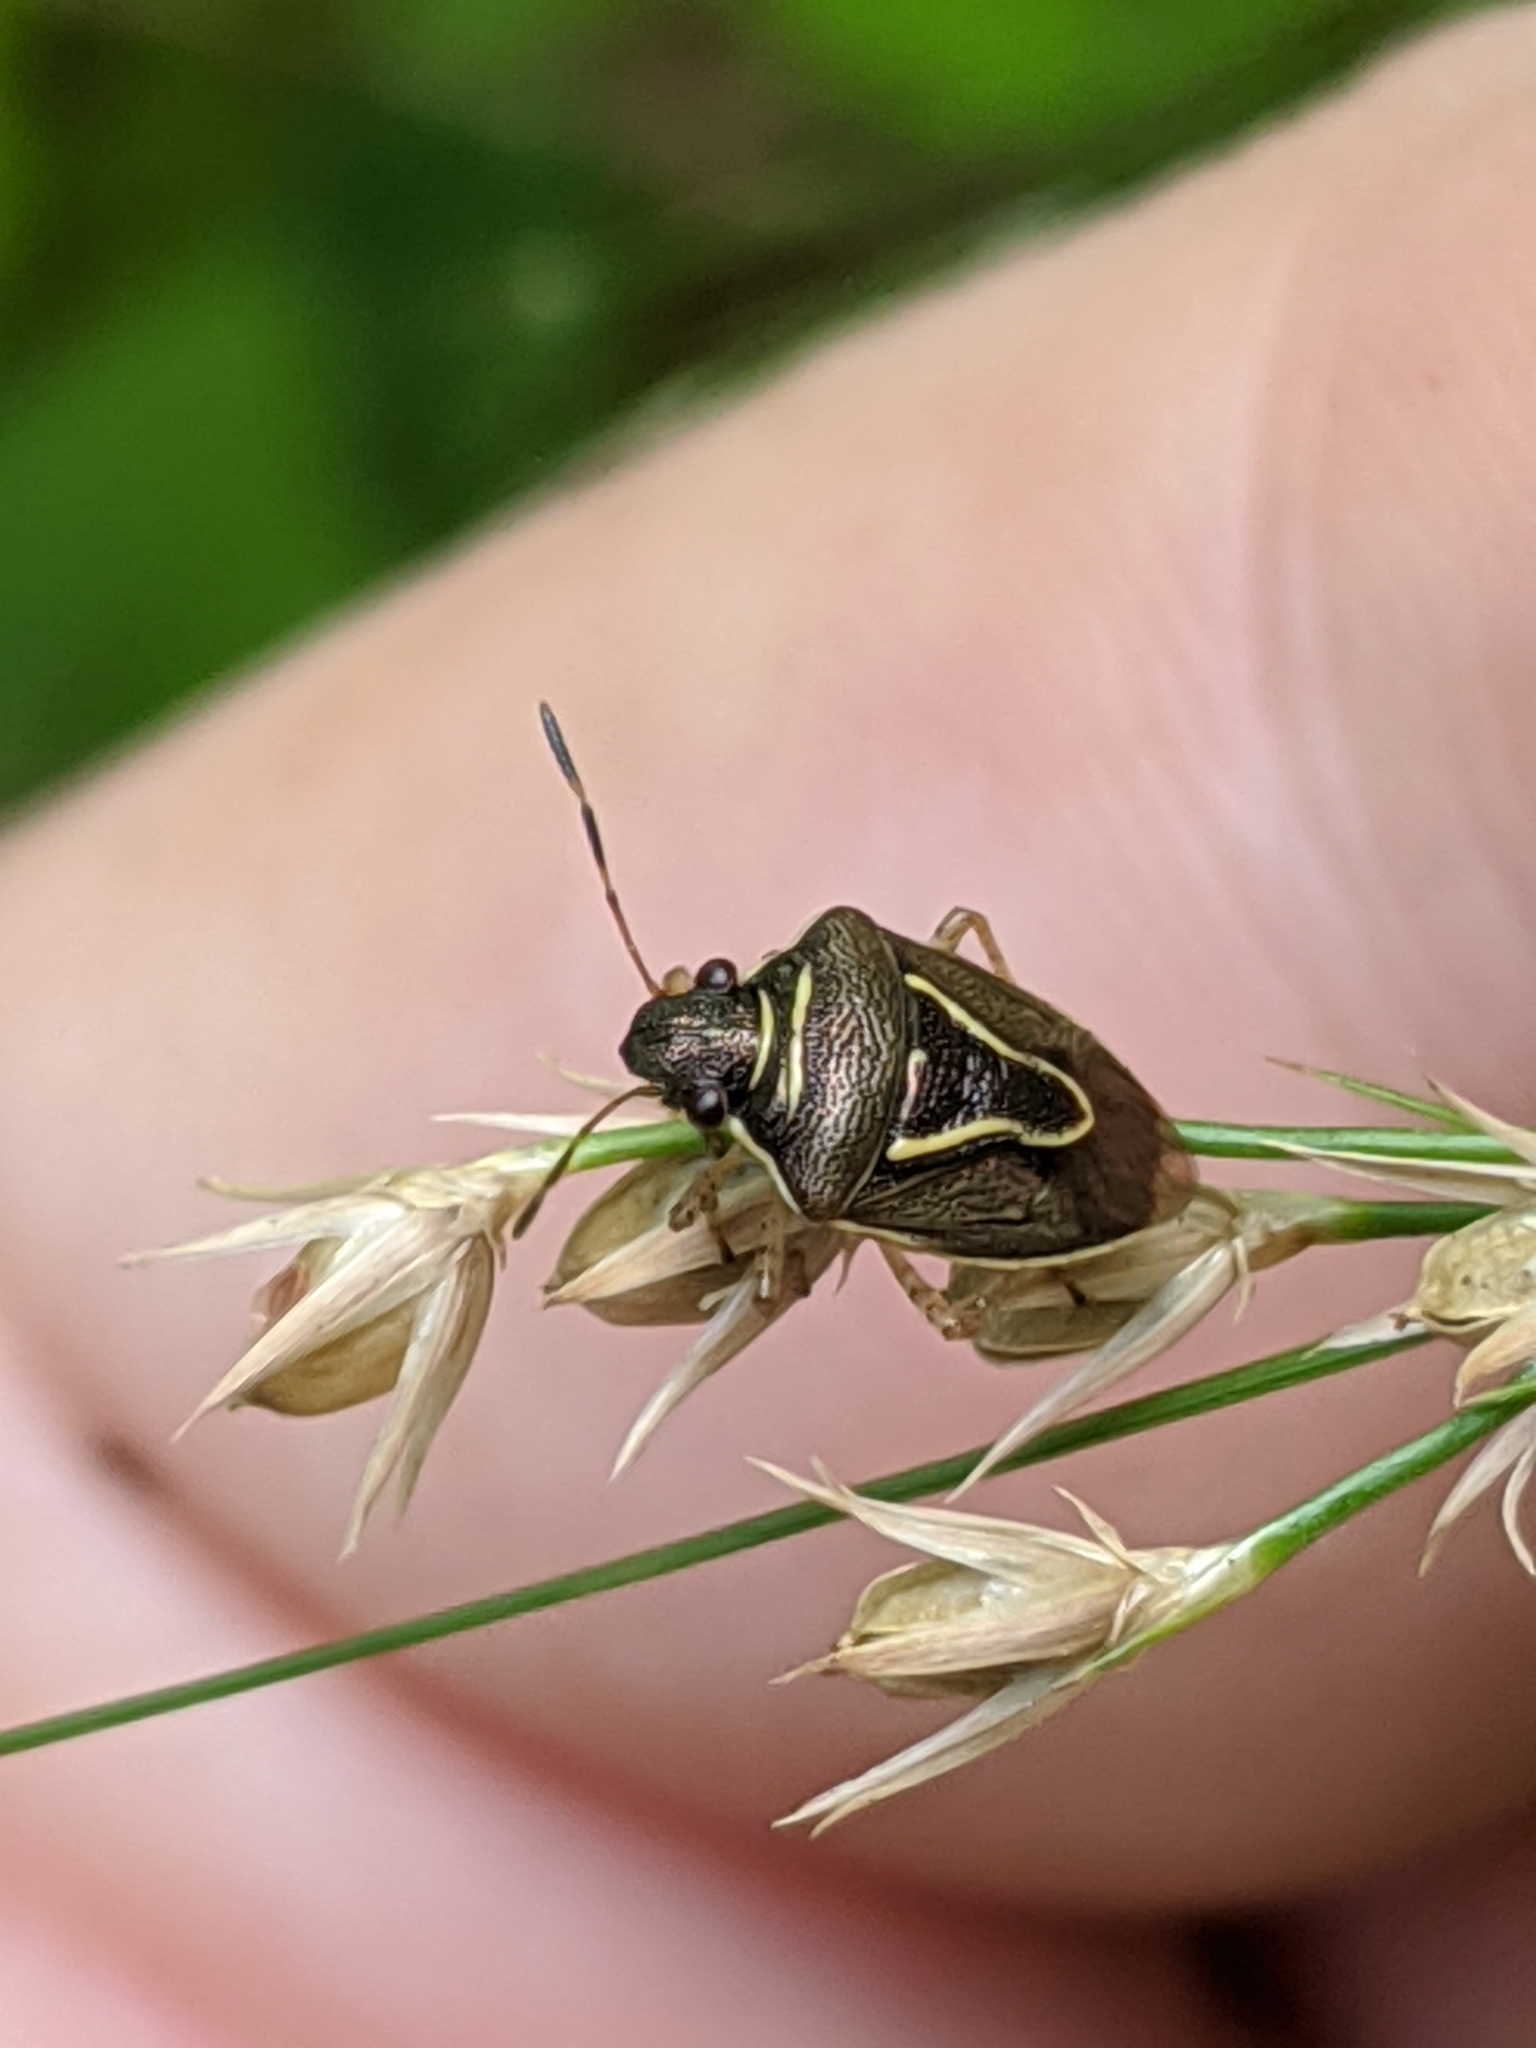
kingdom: Animalia
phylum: Arthropoda
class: Insecta
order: Hemiptera
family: Pentatomidae
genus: Mormidea
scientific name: Mormidea lugens
